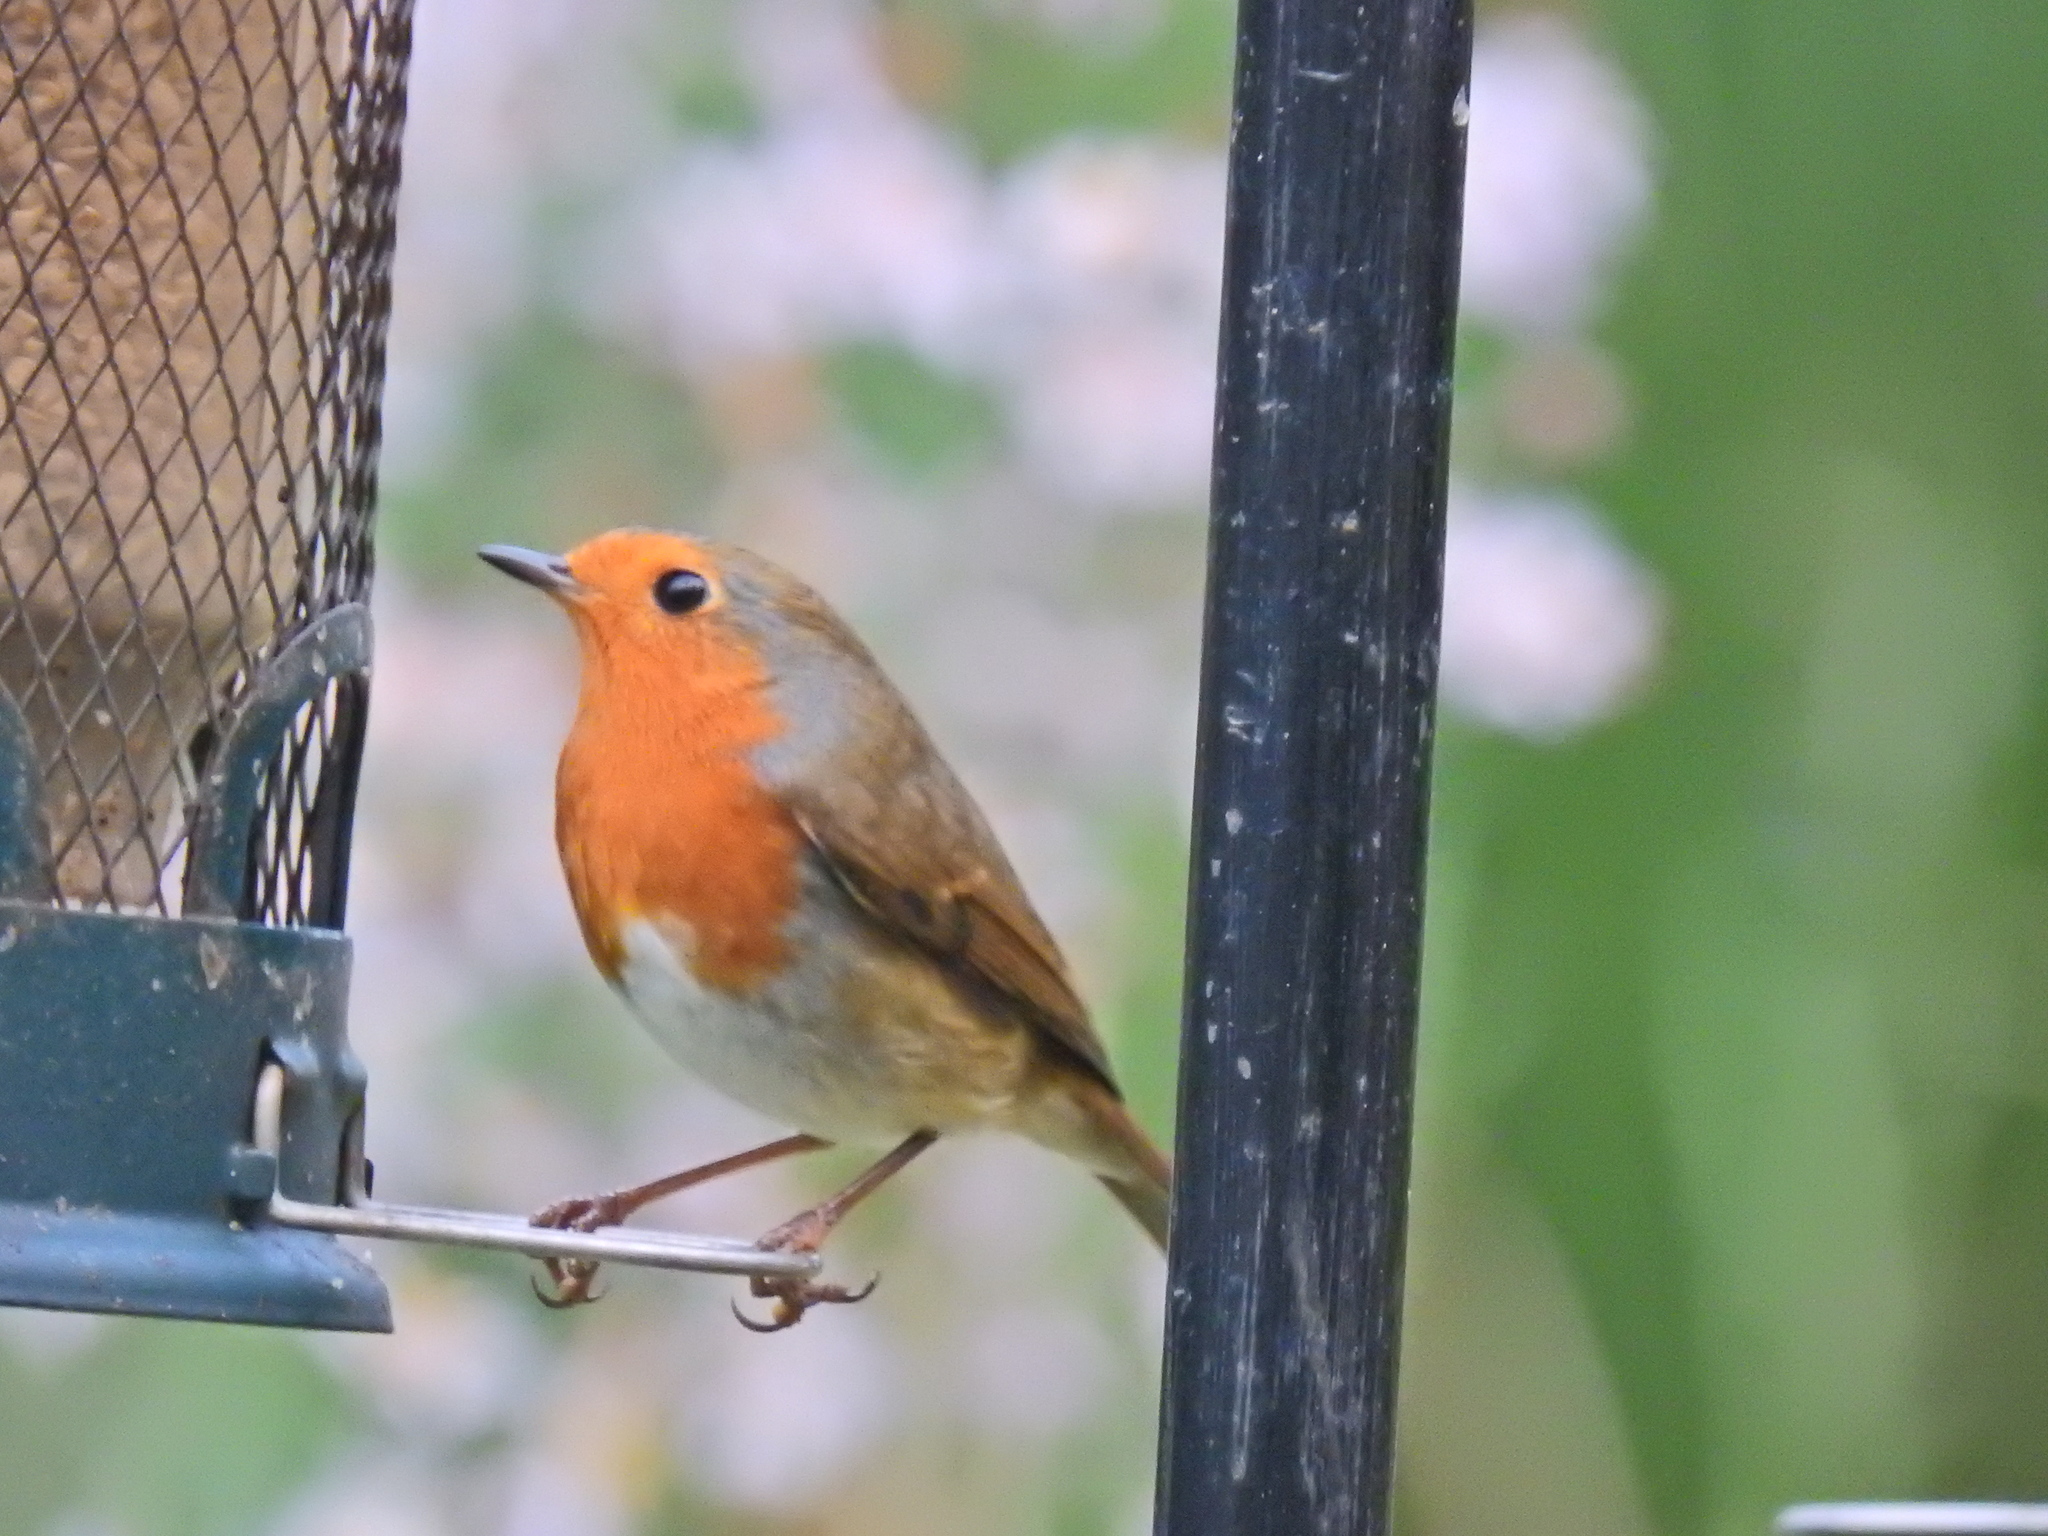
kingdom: Animalia
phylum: Chordata
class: Aves
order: Passeriformes
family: Muscicapidae
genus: Erithacus
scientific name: Erithacus rubecula
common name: European robin
